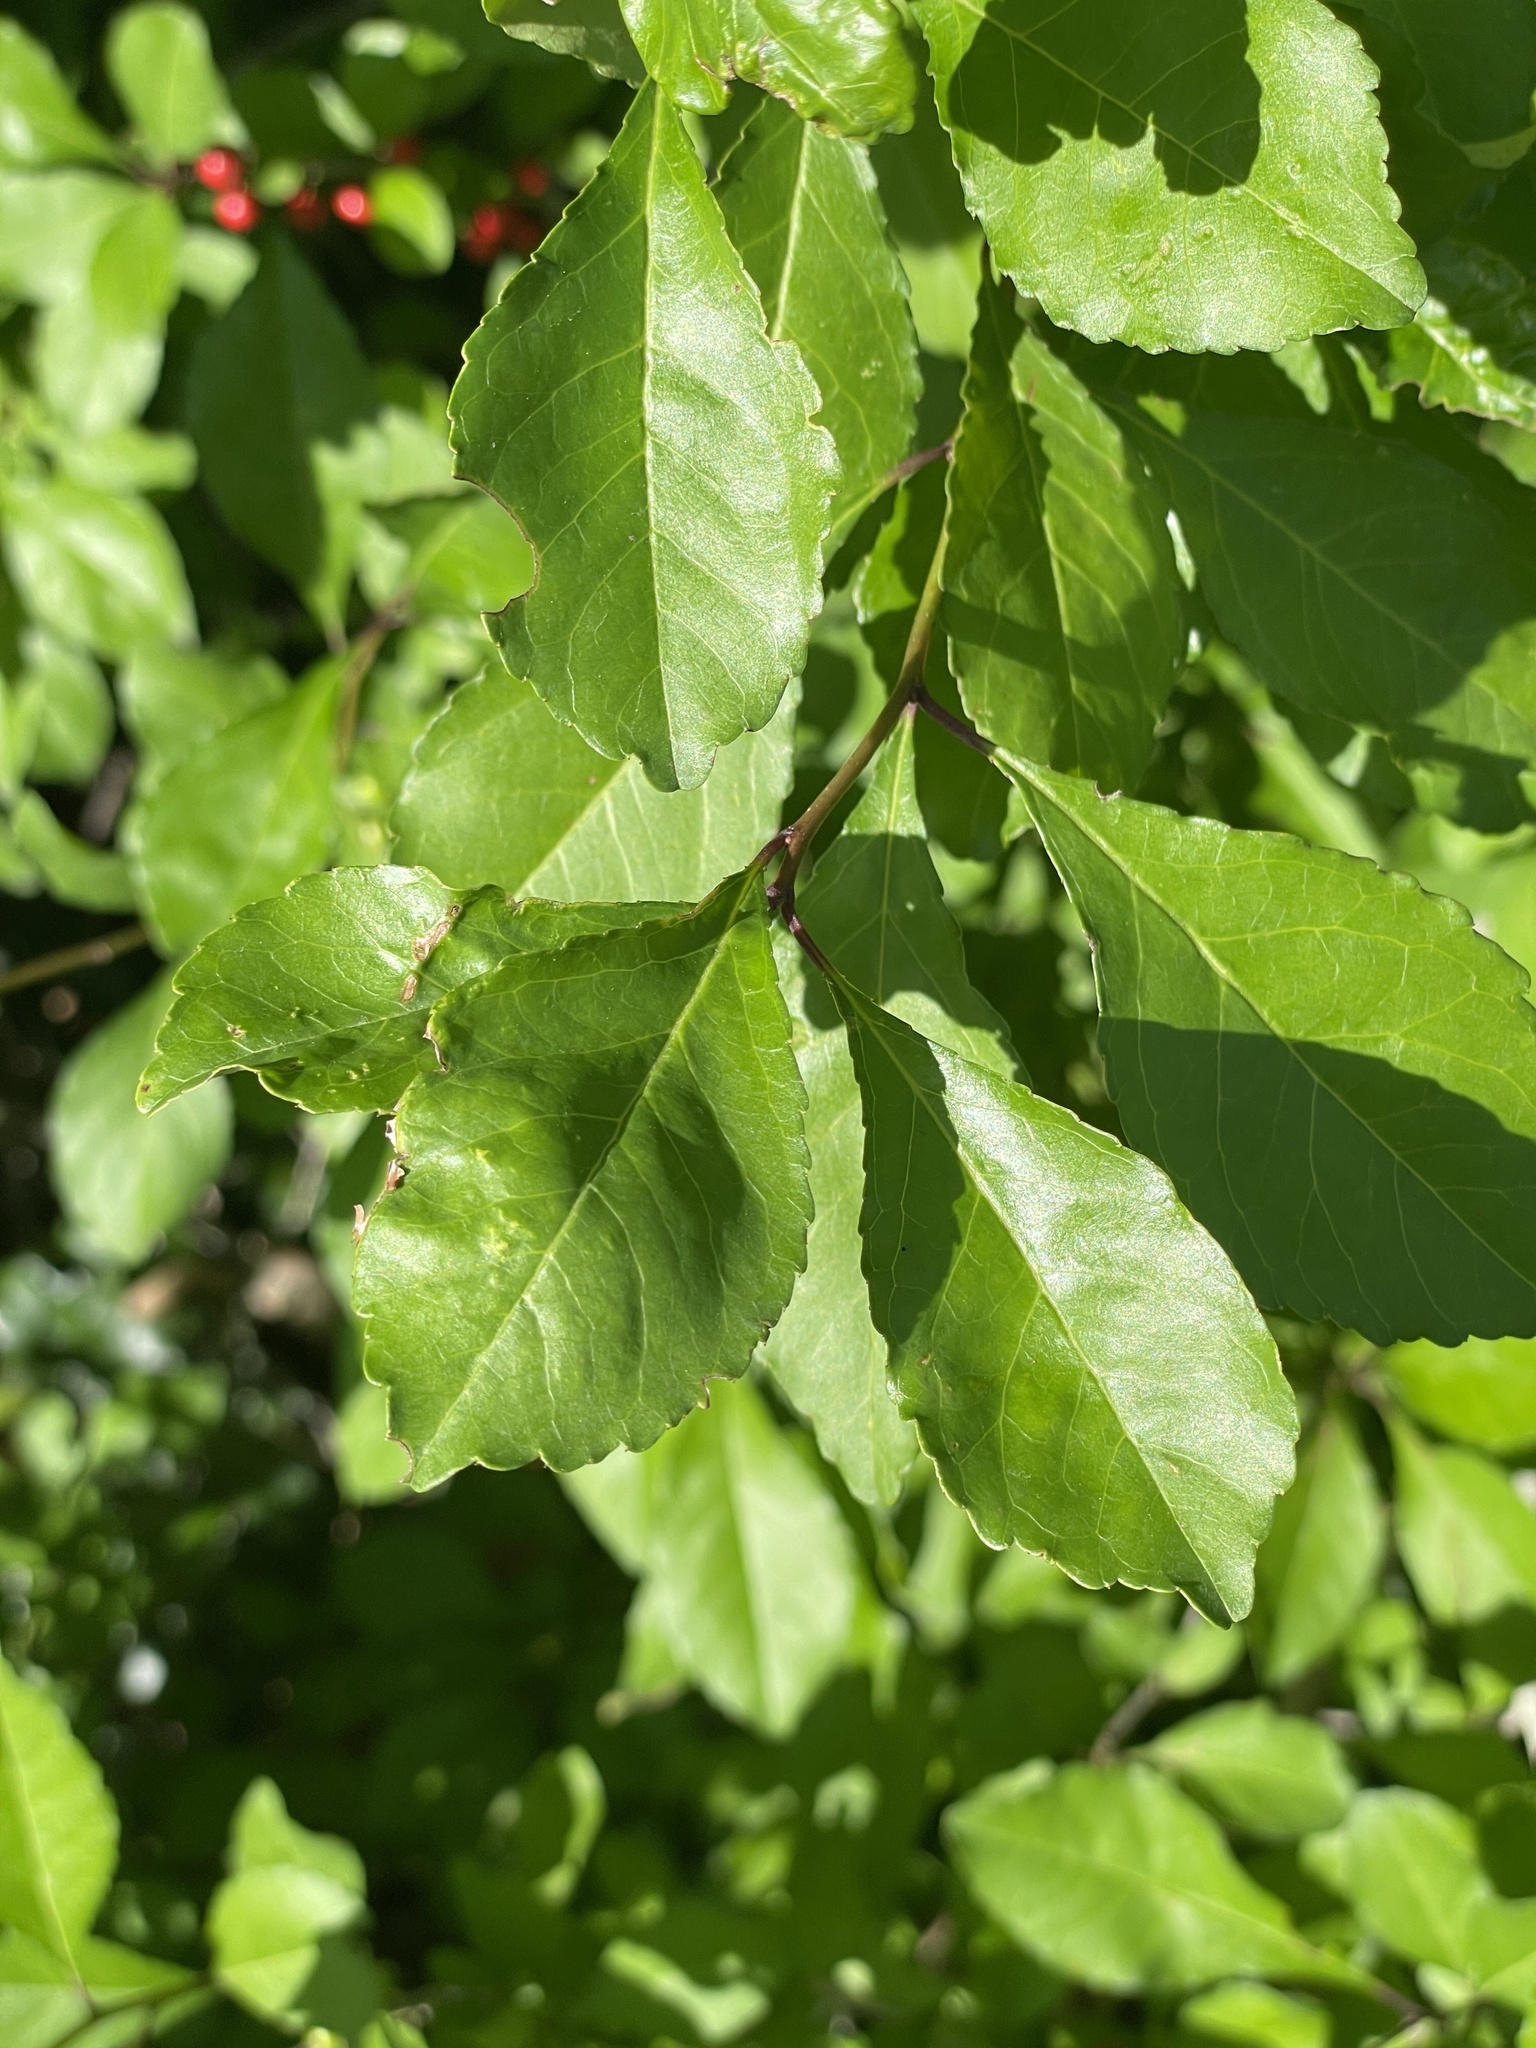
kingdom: Plantae
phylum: Tracheophyta
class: Magnoliopsida
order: Aquifoliales
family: Aquifoliaceae
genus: Ilex
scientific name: Ilex decidua
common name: Possum-haw
